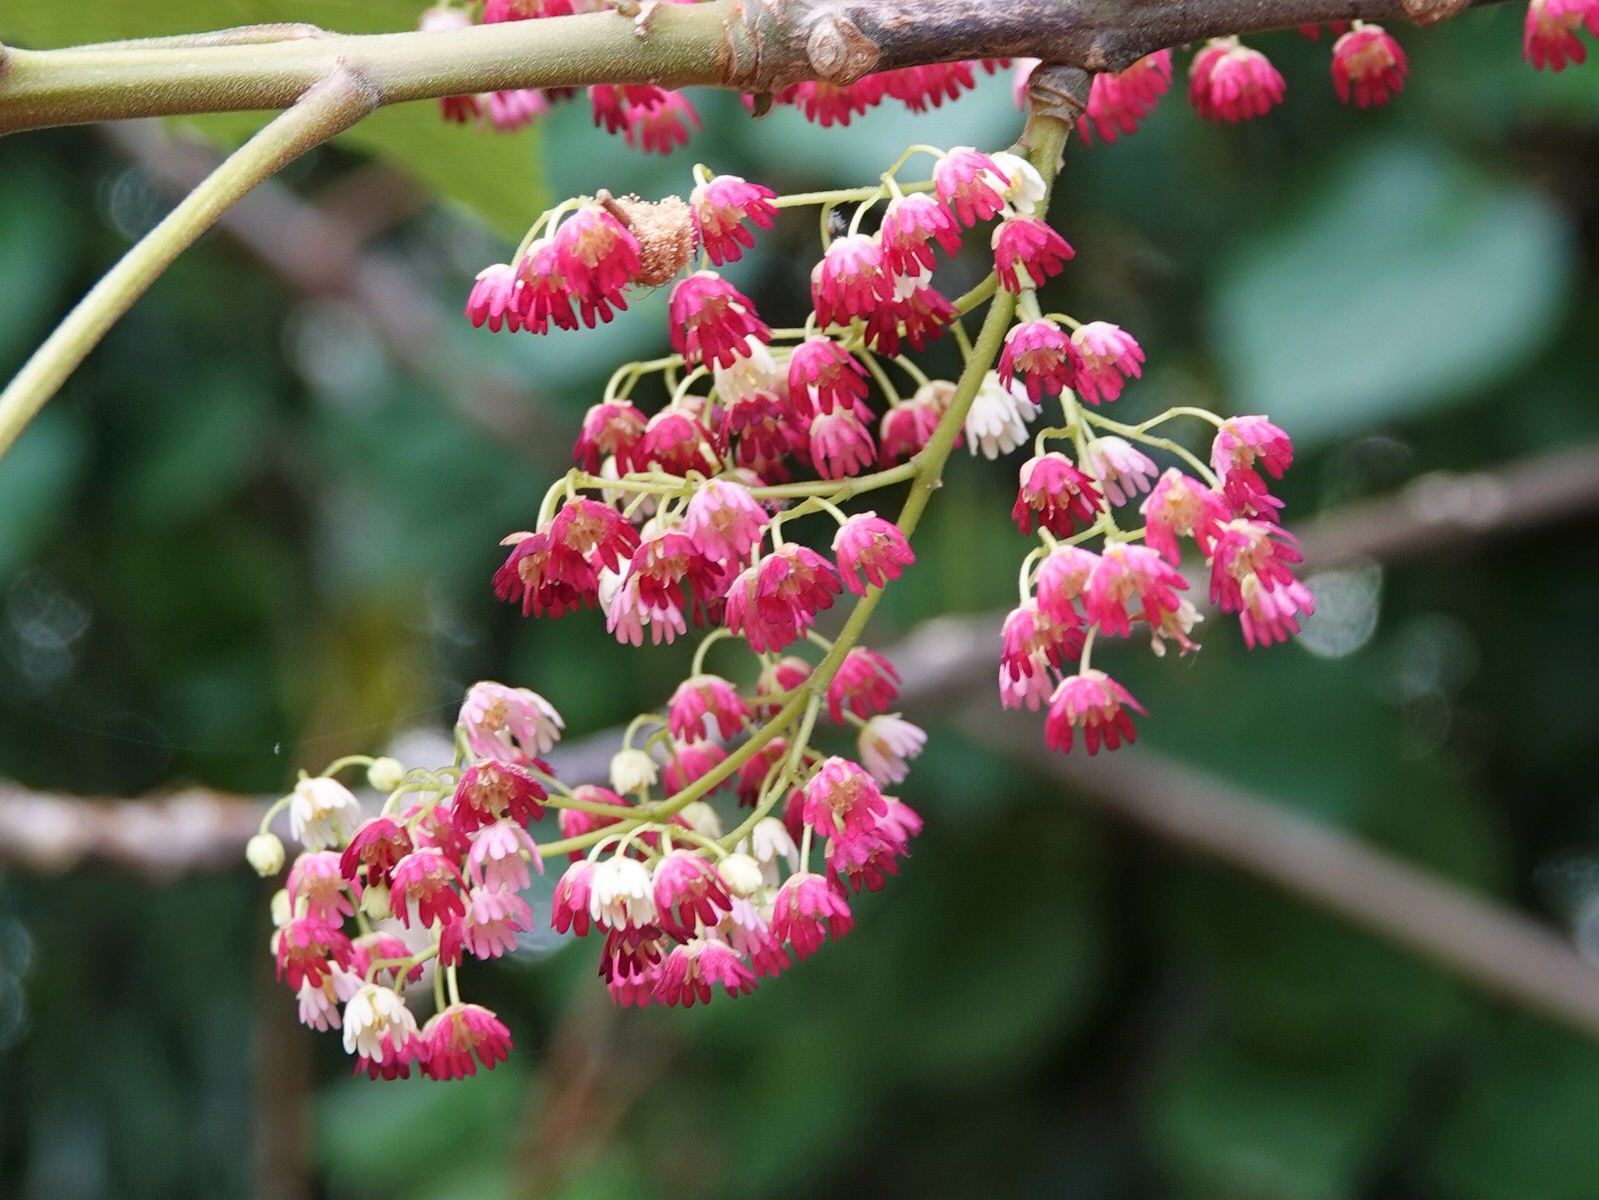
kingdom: Plantae
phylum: Tracheophyta
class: Magnoliopsida
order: Oxalidales
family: Elaeocarpaceae
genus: Aristotelia
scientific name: Aristotelia serrata
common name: New zealand wineberry
